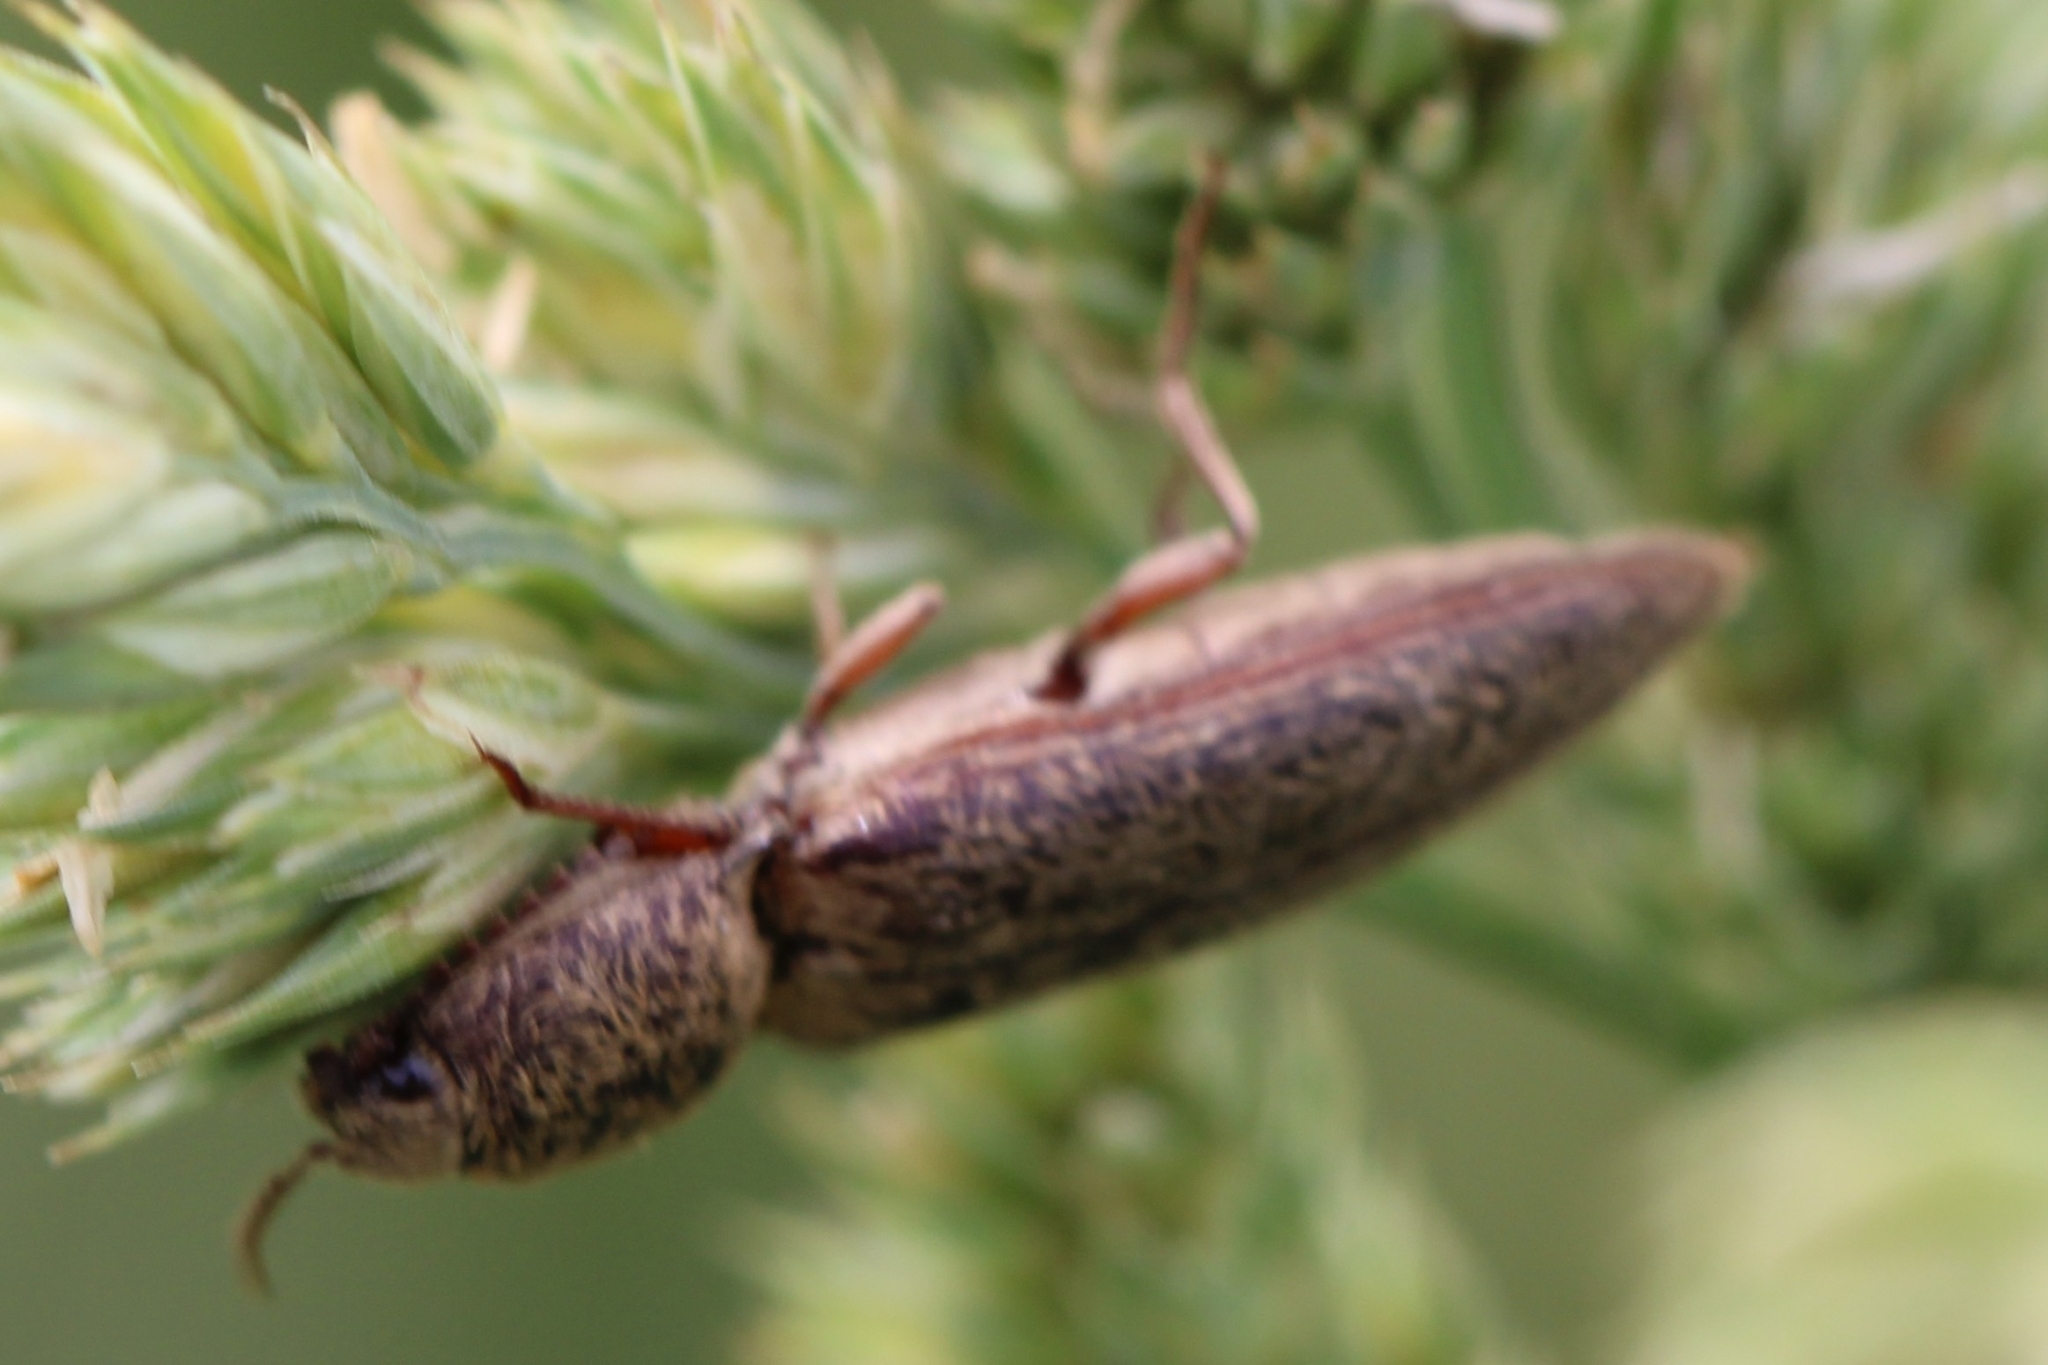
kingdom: Animalia
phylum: Arthropoda
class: Insecta
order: Coleoptera
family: Elateridae
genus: Gambrinus
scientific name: Gambrinus griseus
